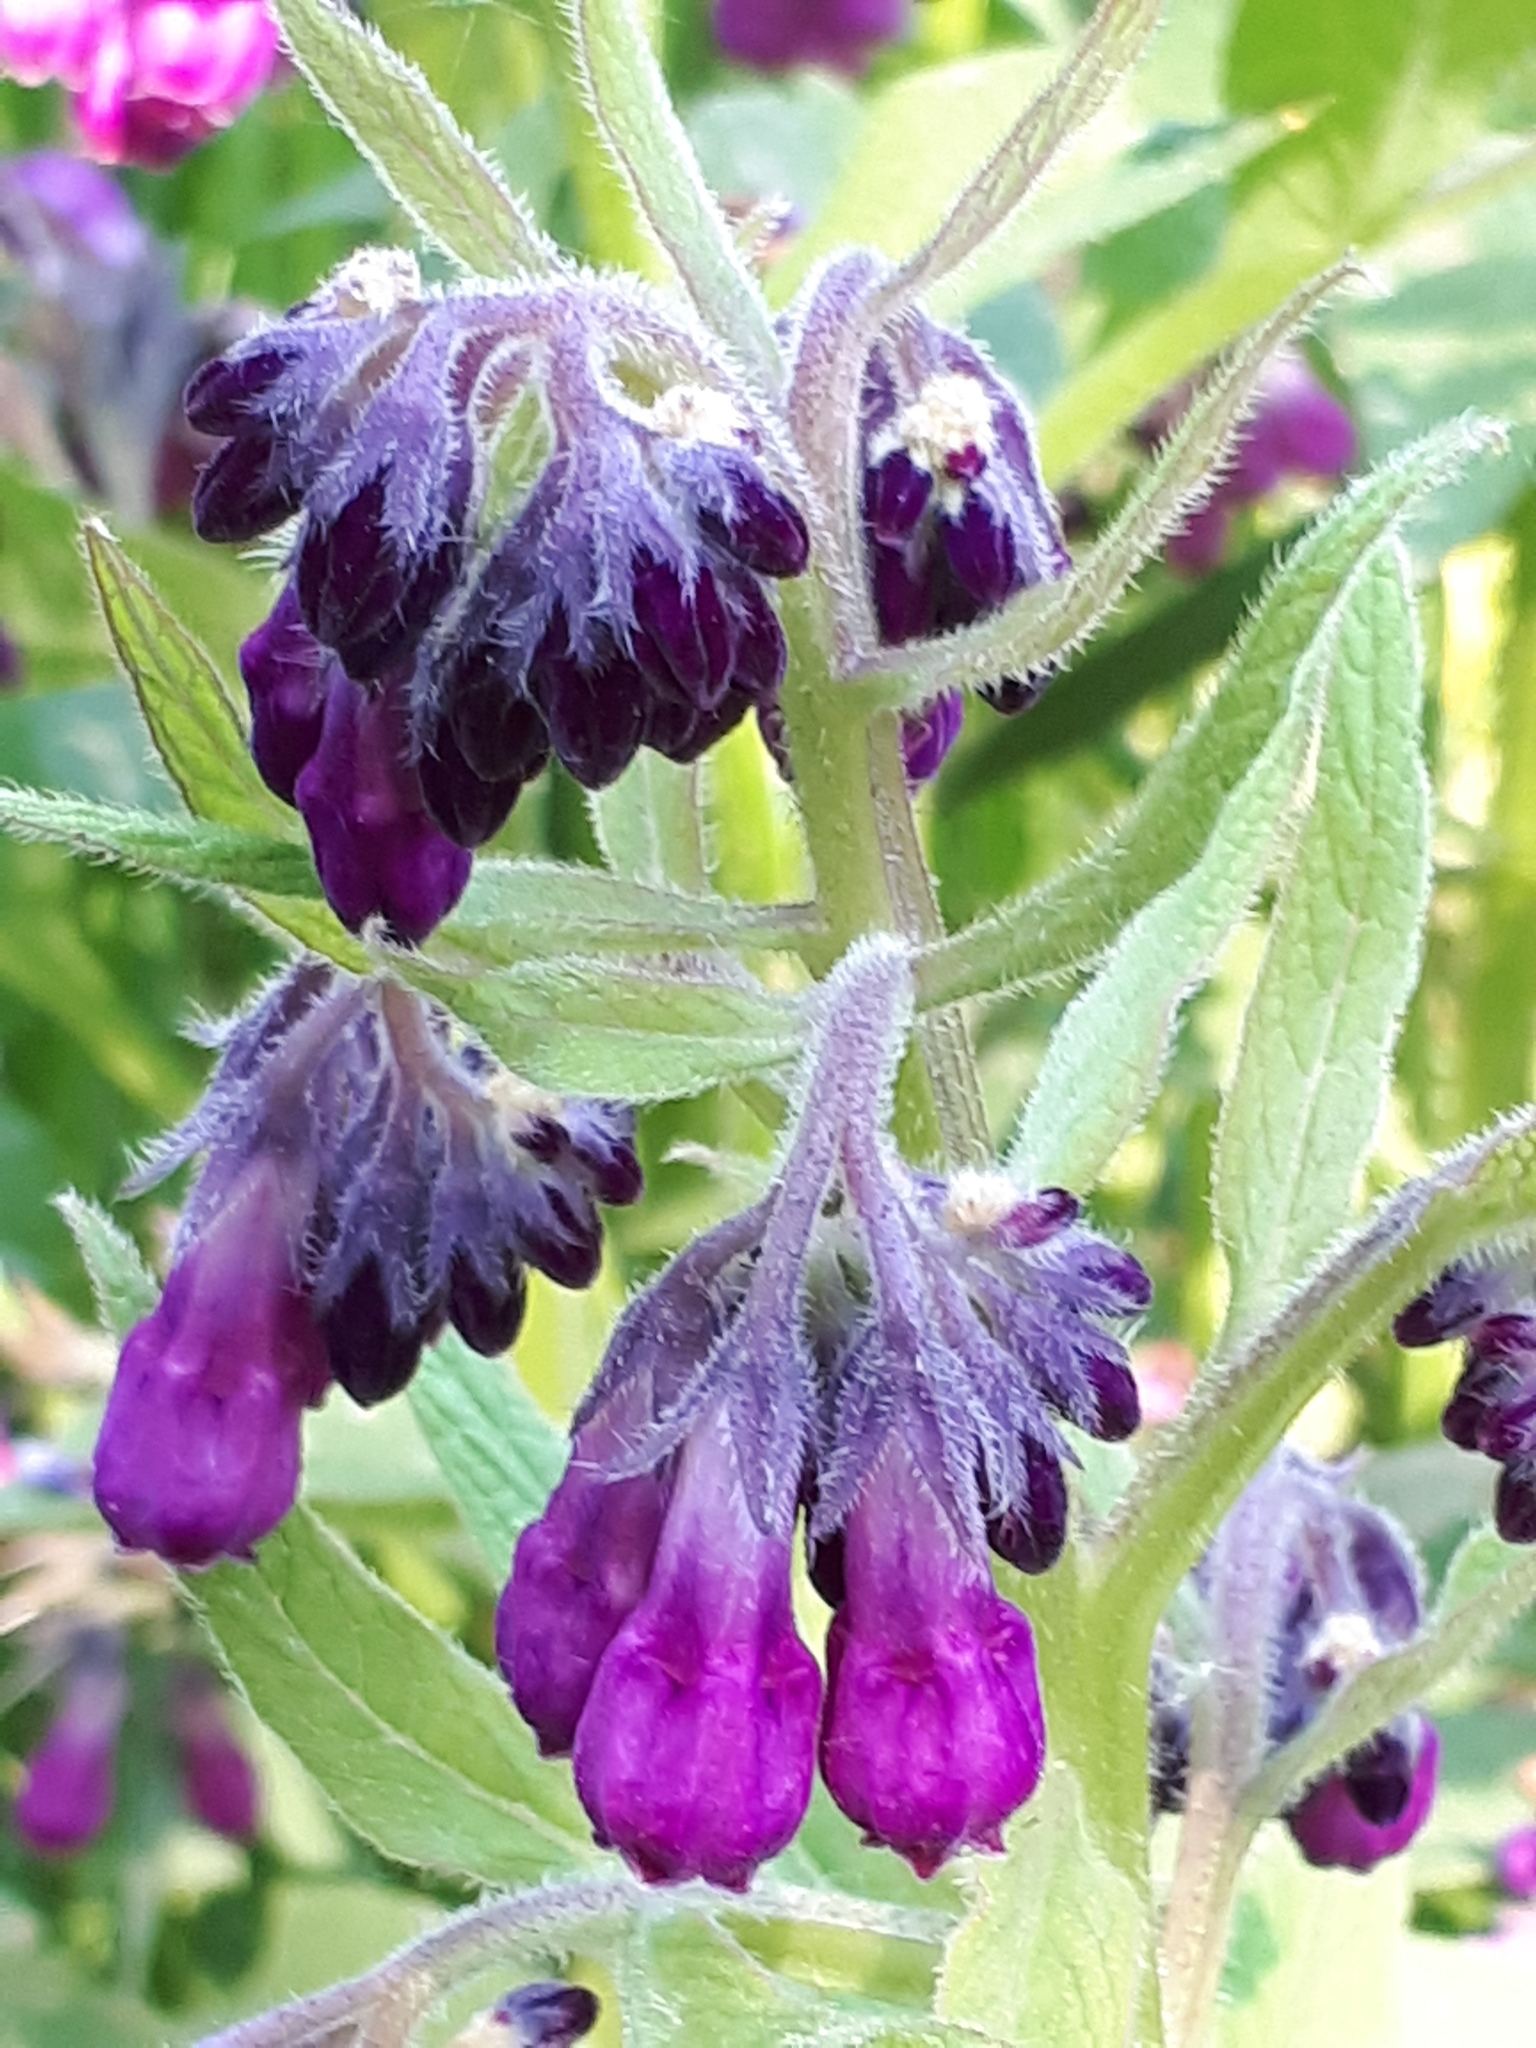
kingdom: Plantae
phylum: Tracheophyta
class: Magnoliopsida
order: Boraginales
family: Boraginaceae
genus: Symphytum
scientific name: Symphytum officinale
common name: Common comfrey
